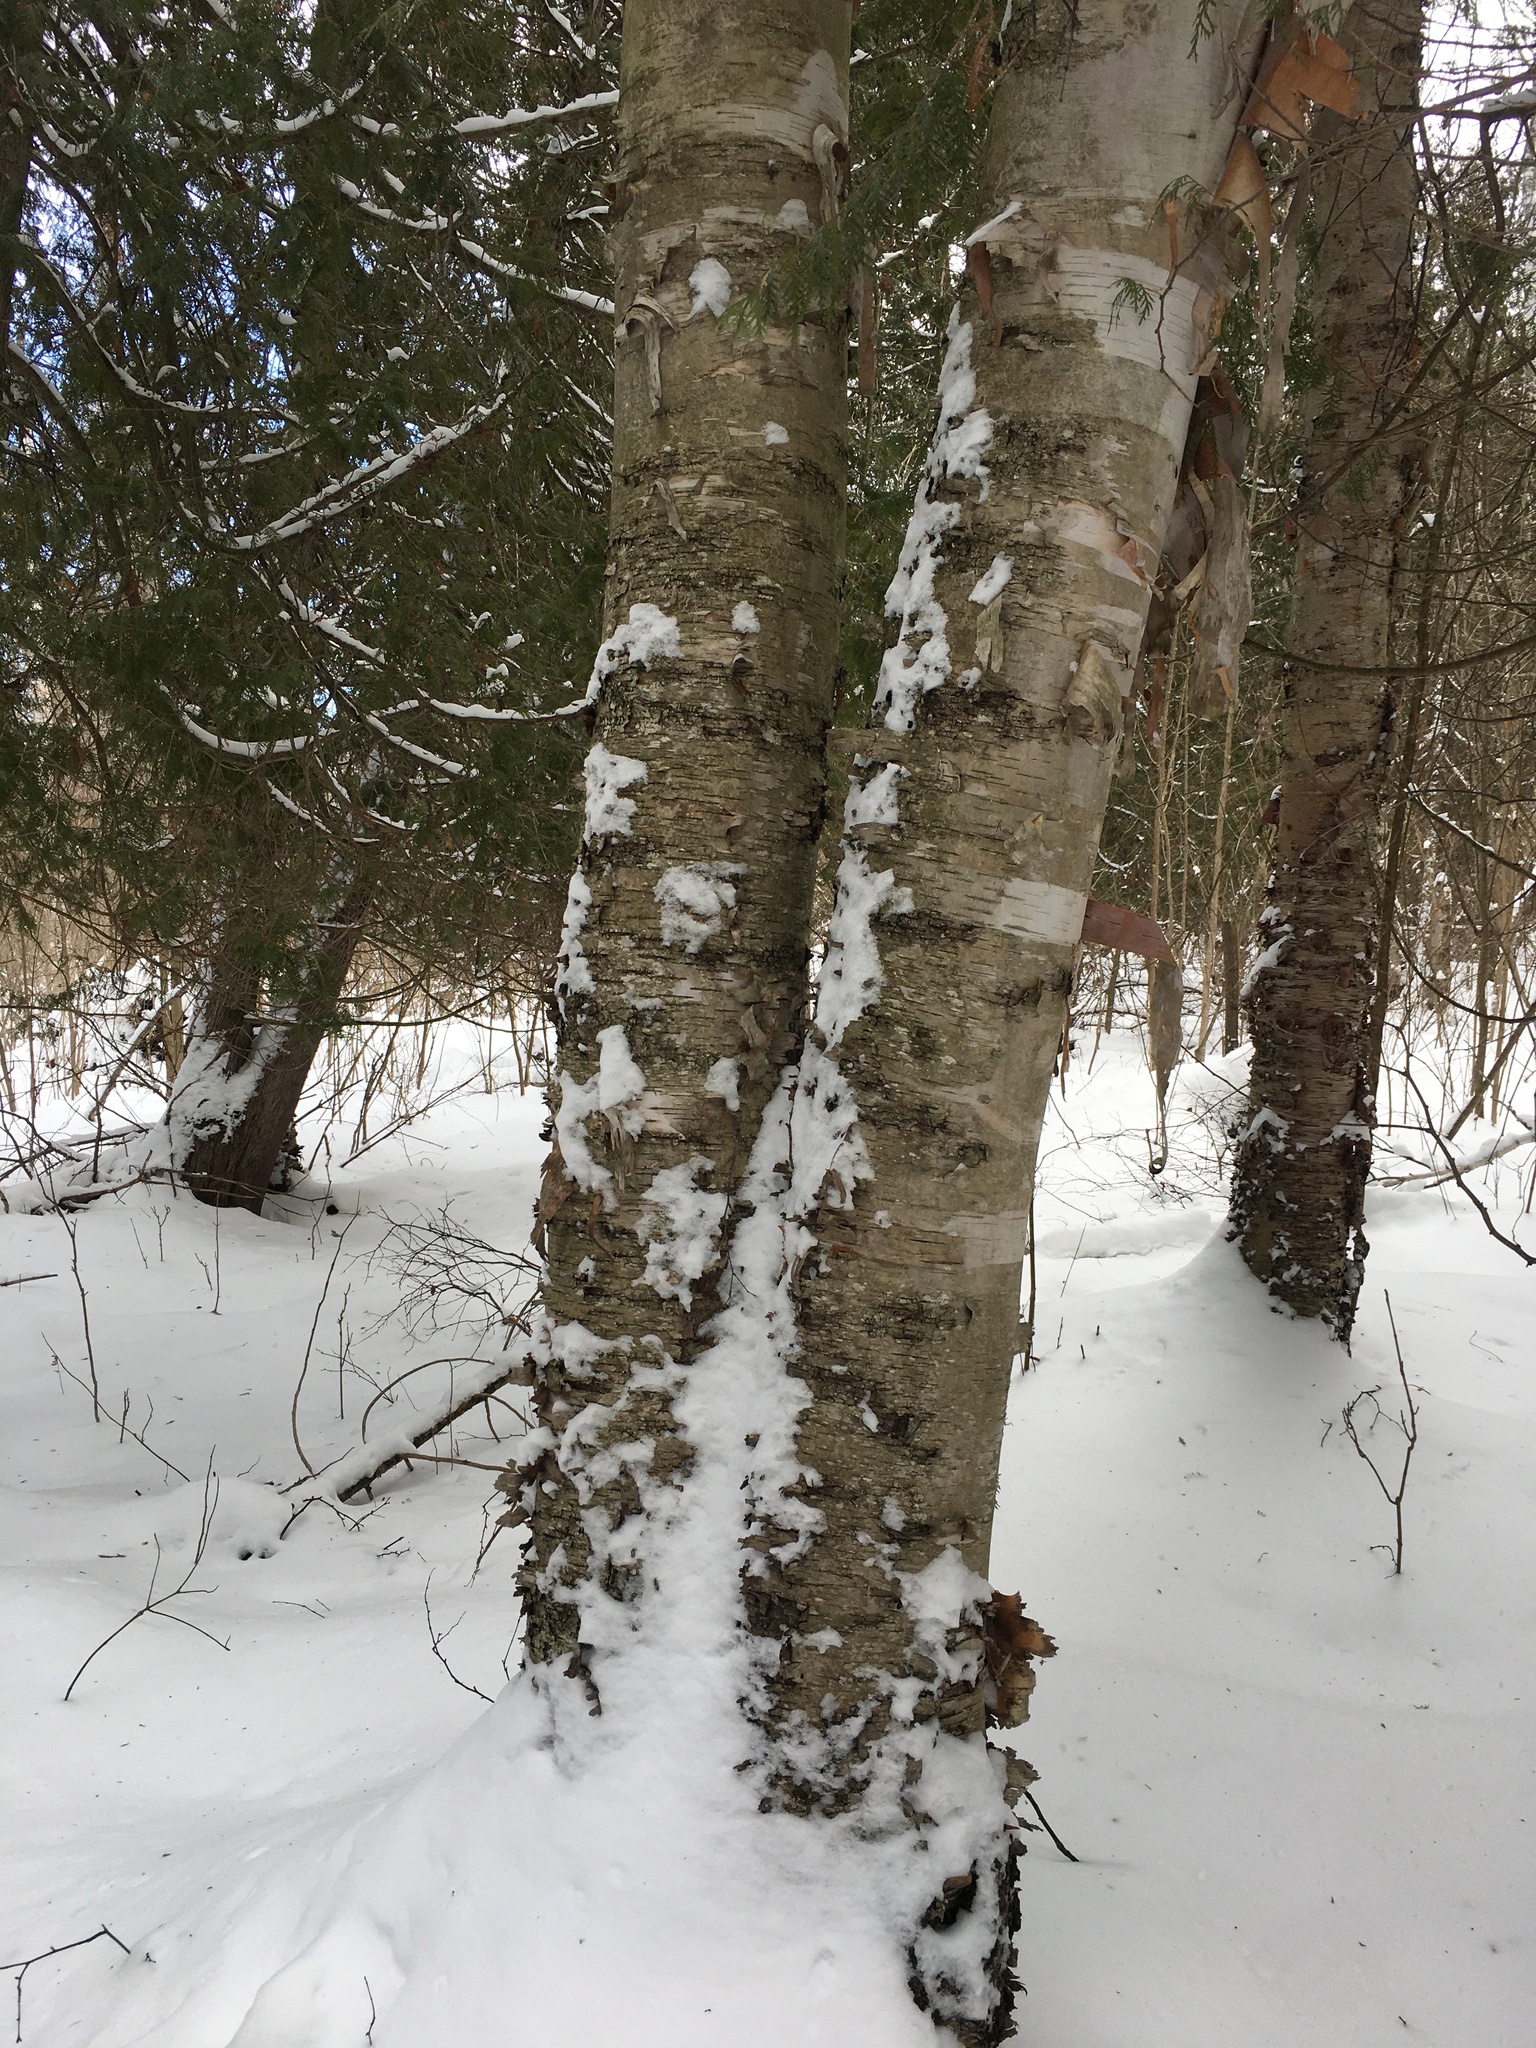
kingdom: Plantae
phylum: Tracheophyta
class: Magnoliopsida
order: Fagales
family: Betulaceae
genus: Betula
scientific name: Betula papyrifera
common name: Paper birch
